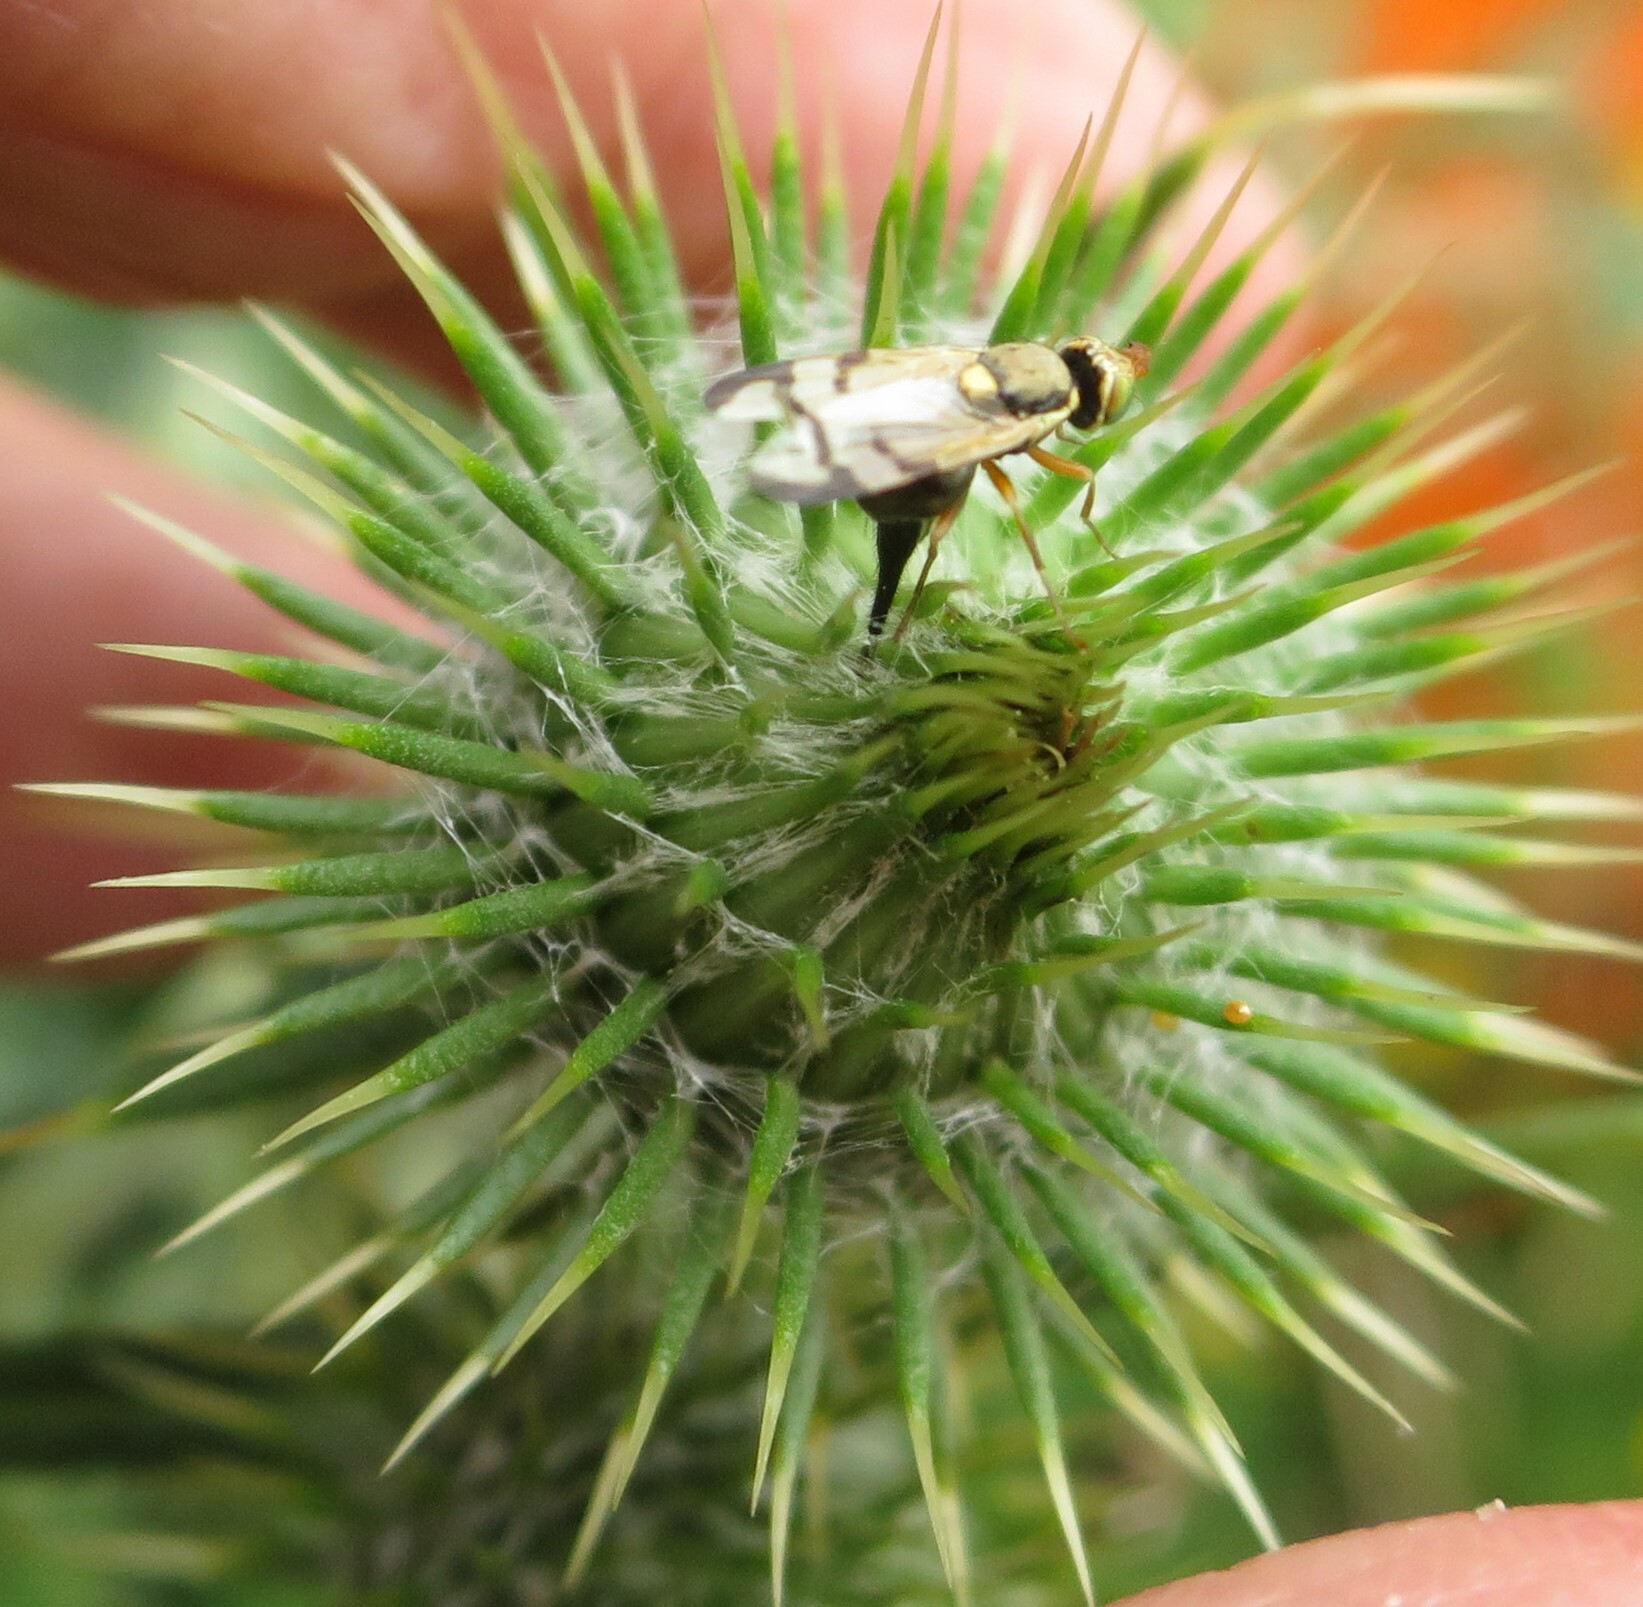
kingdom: Animalia
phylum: Arthropoda
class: Insecta
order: Diptera
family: Tephritidae
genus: Urophora
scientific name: Urophora stylata
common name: Fruit fly
